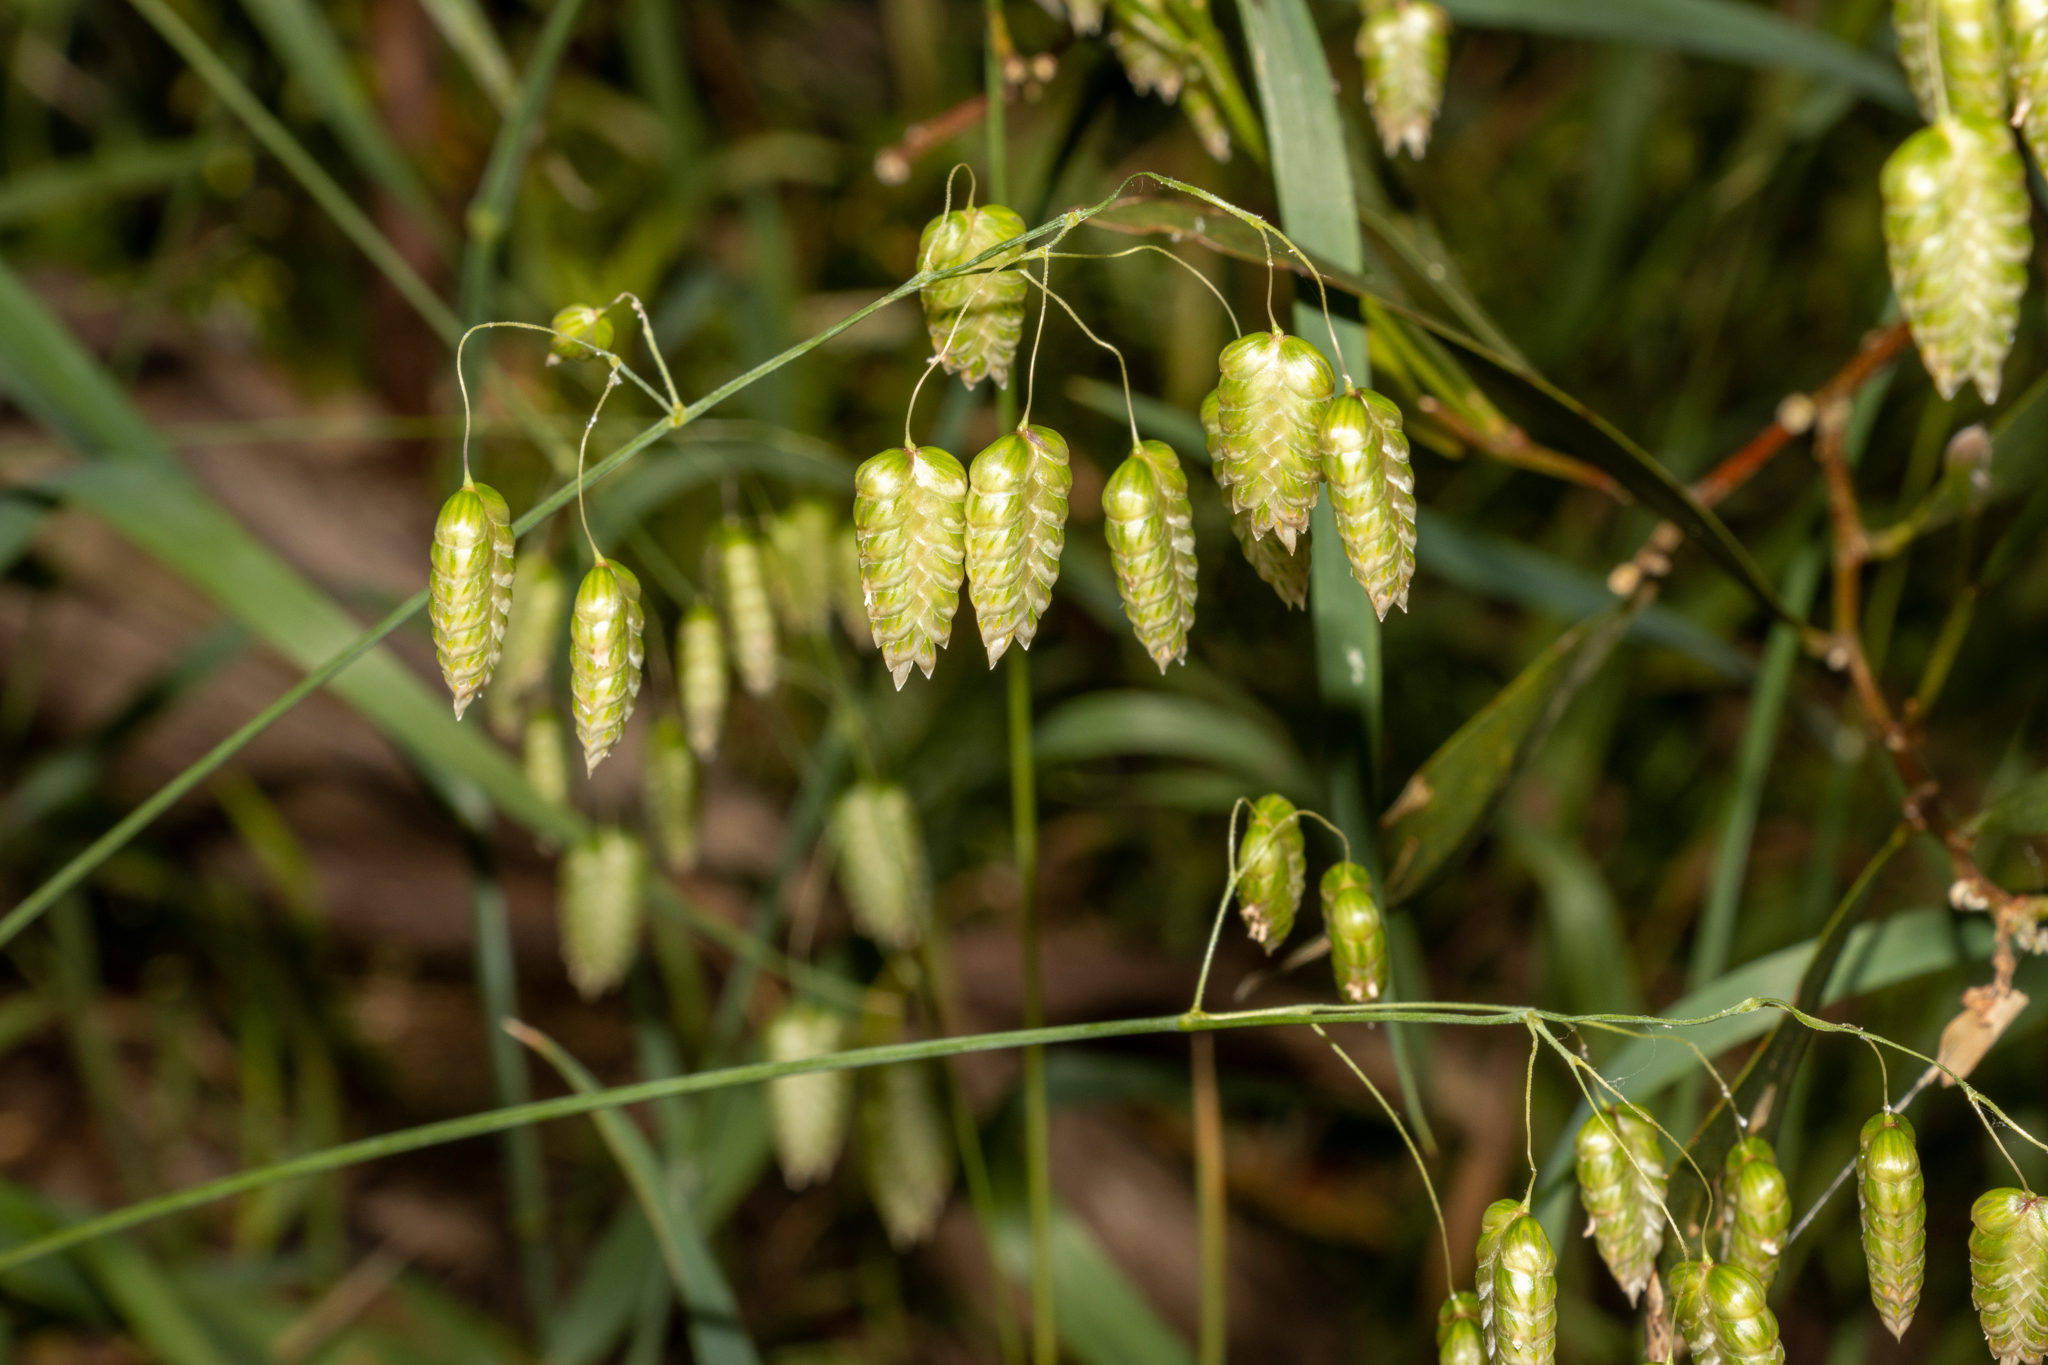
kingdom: Plantae
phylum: Tracheophyta
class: Liliopsida
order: Poales
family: Poaceae
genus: Briza
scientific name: Briza maxima
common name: Big quakinggrass
